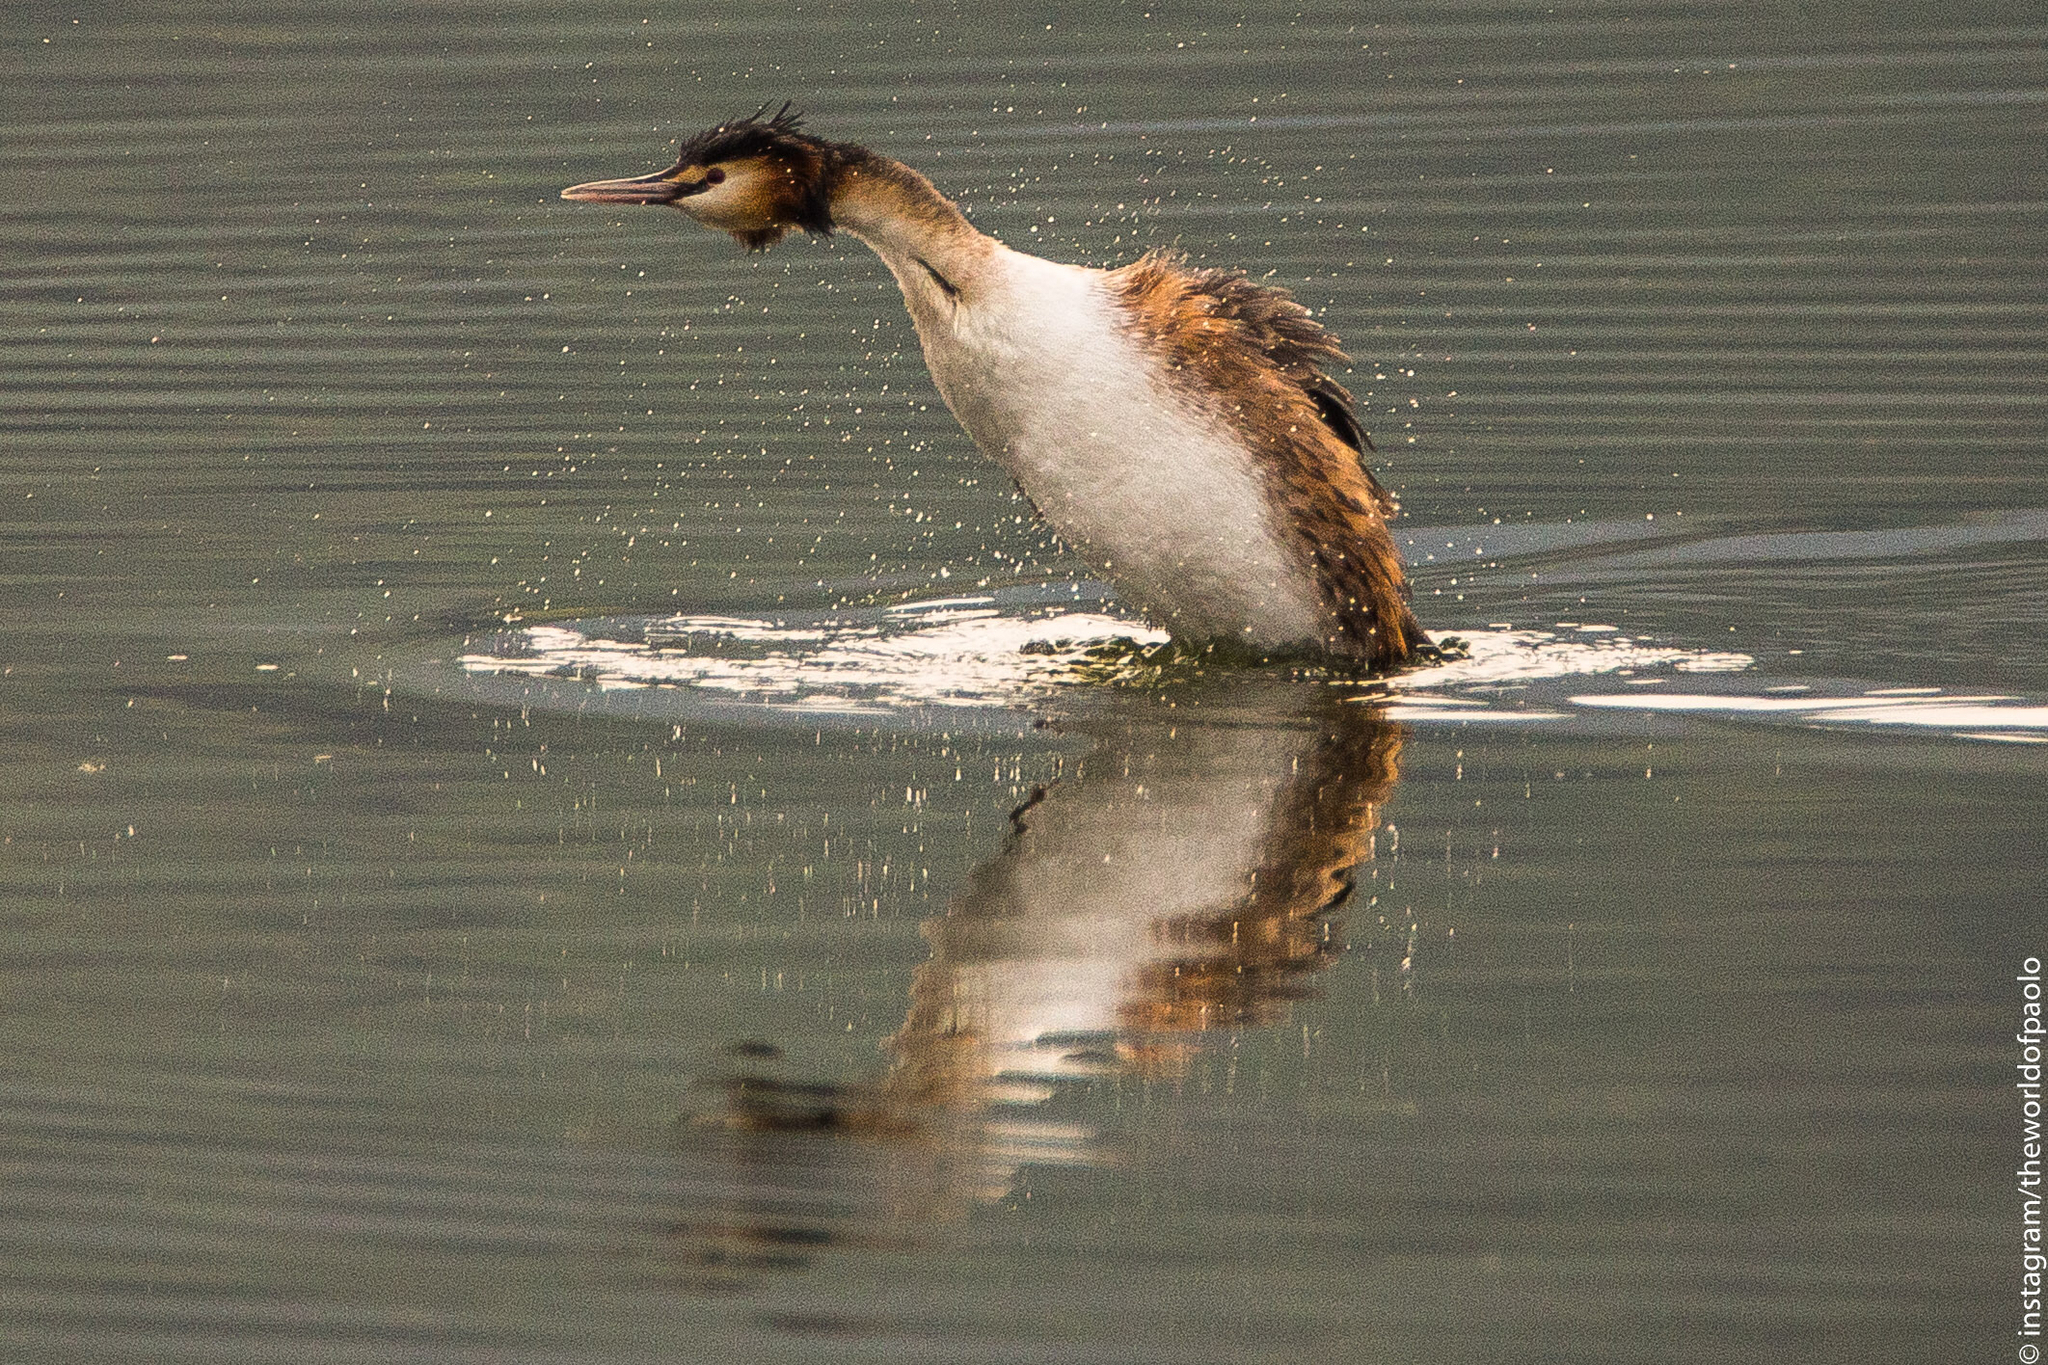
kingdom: Animalia
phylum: Chordata
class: Aves
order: Podicipediformes
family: Podicipedidae
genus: Podiceps
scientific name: Podiceps cristatus
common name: Great crested grebe
